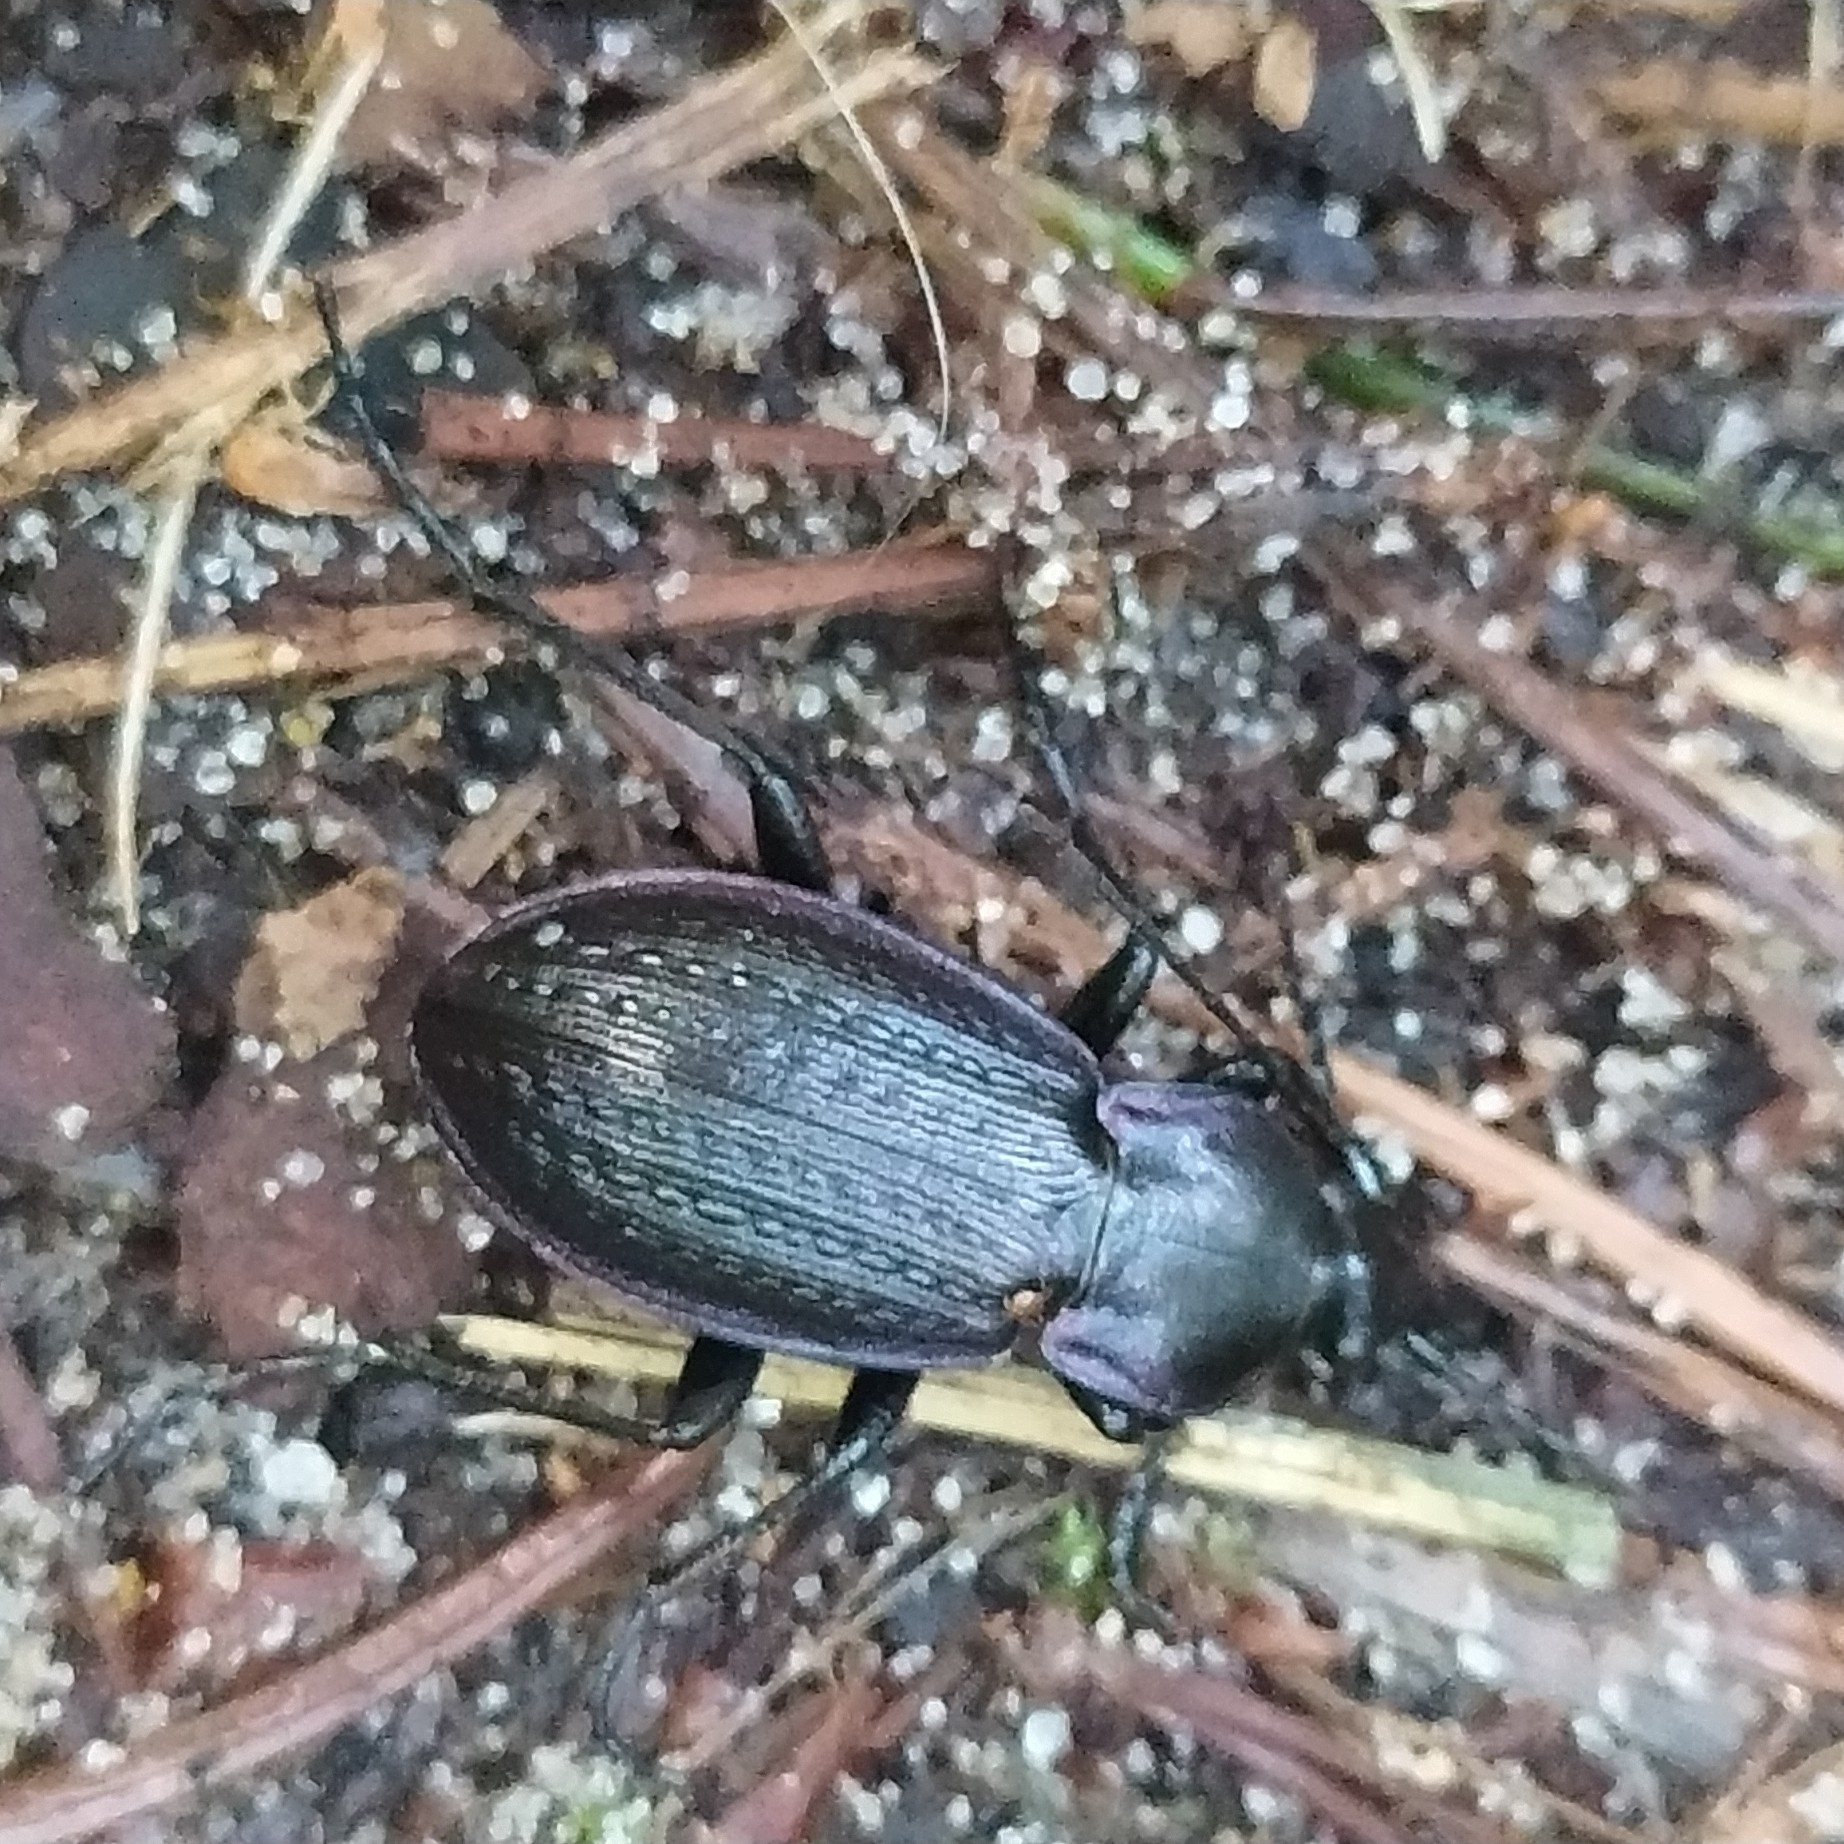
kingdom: Animalia
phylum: Arthropoda
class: Insecta
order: Coleoptera
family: Carabidae
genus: Carabus
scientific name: Carabus arvensis
